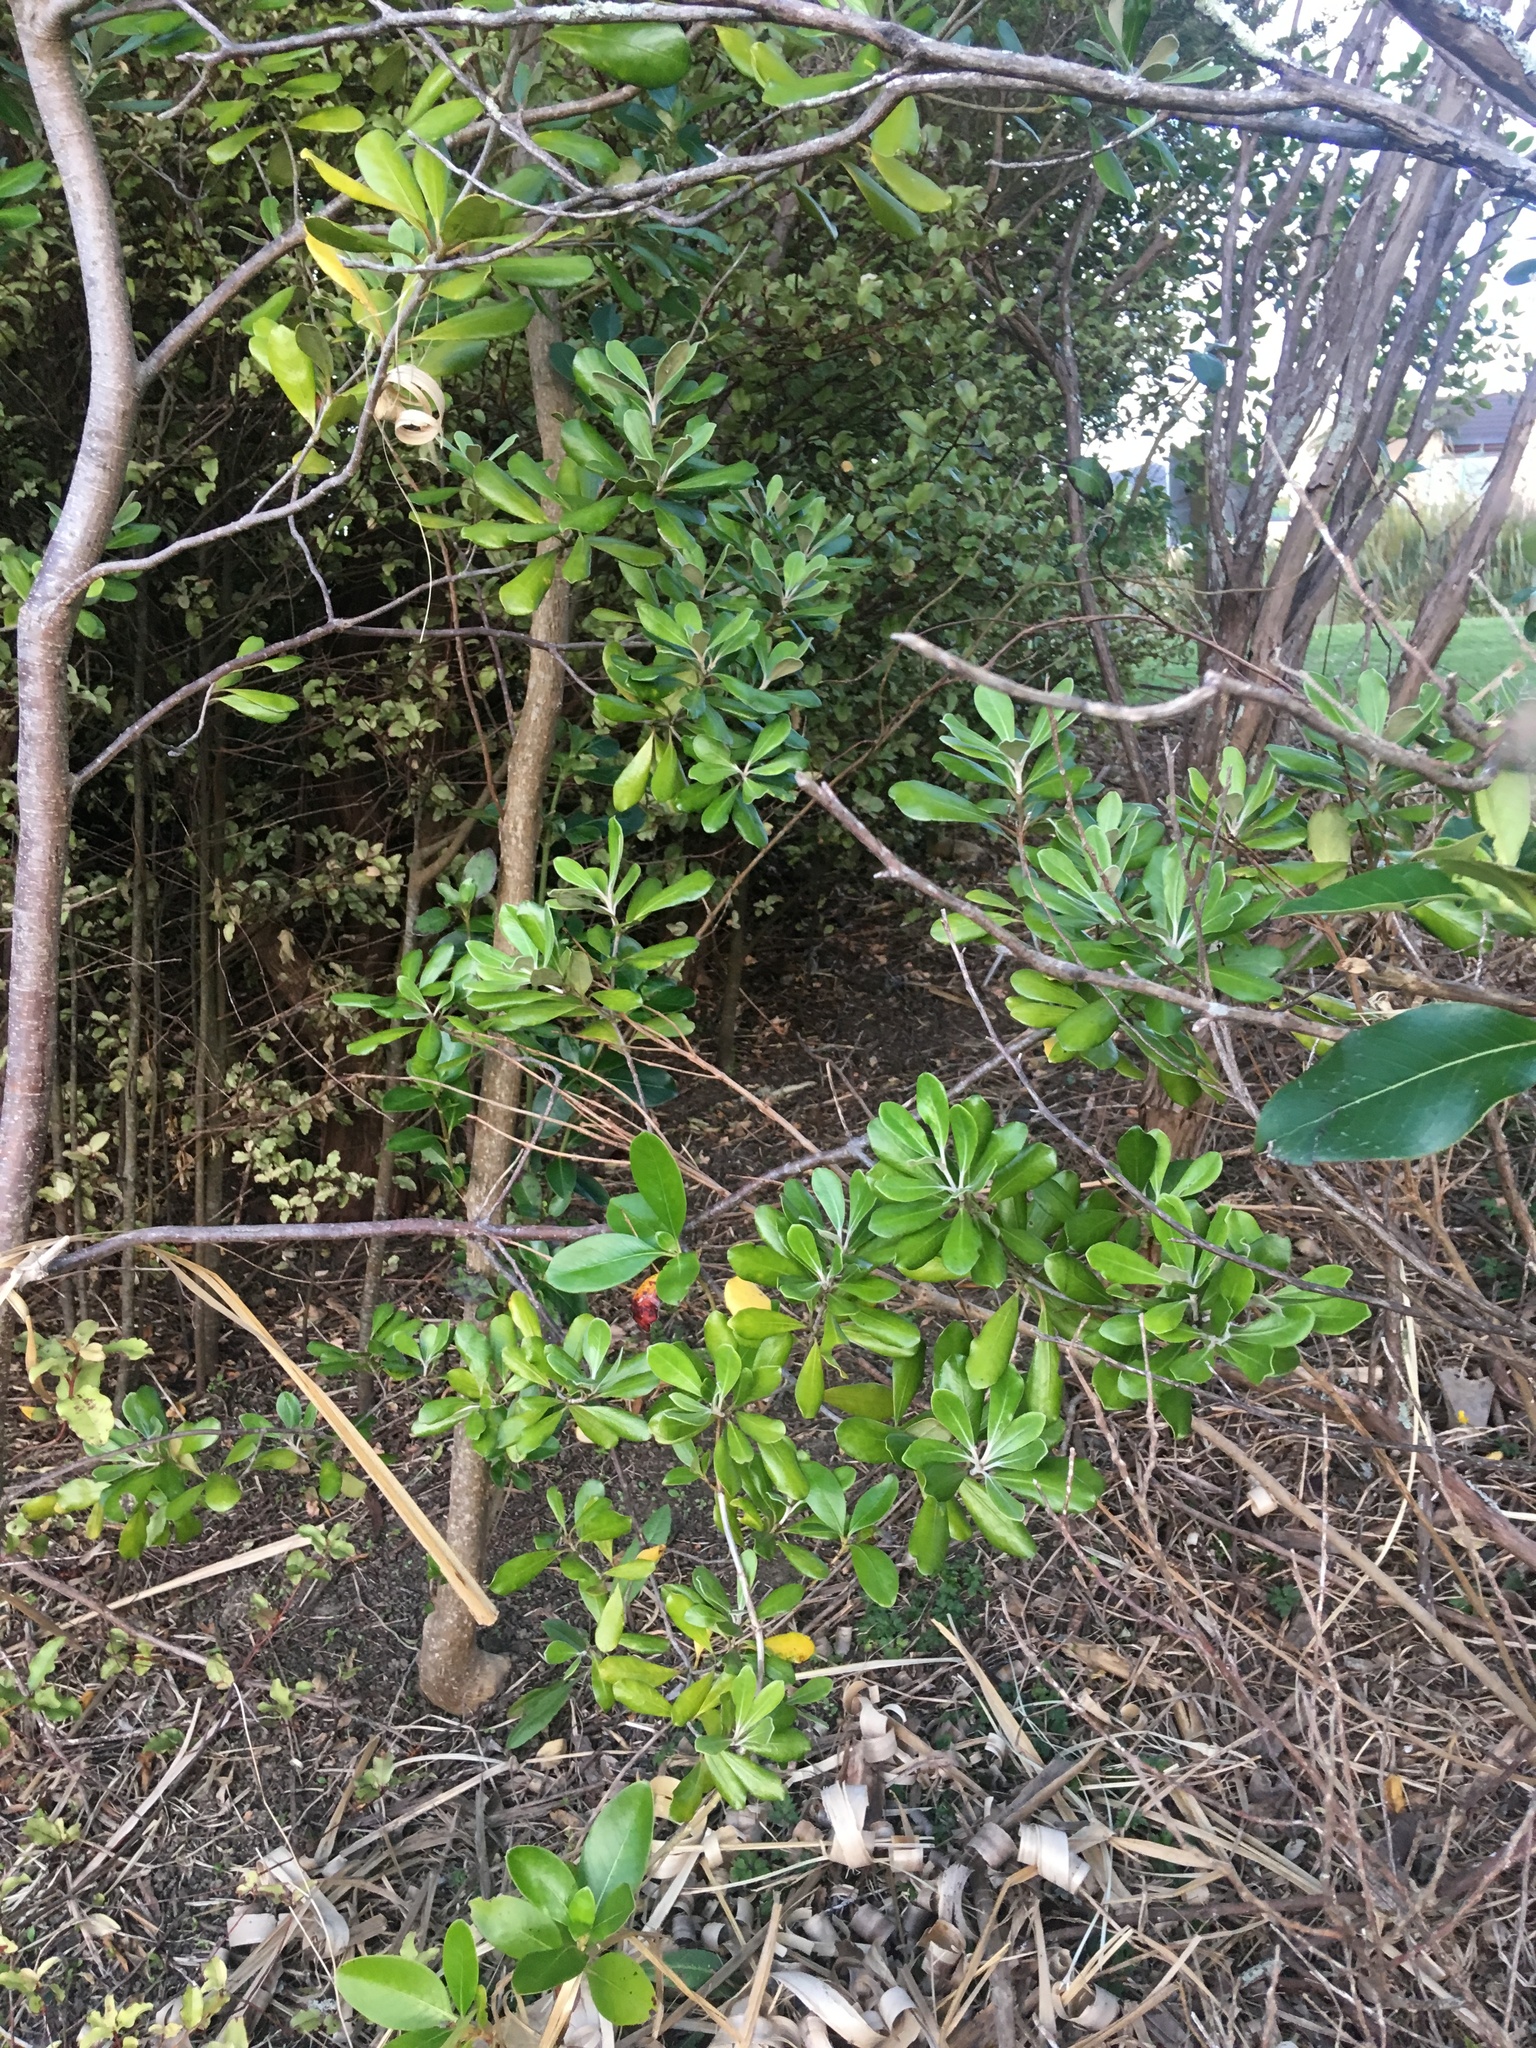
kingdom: Plantae
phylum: Tracheophyta
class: Magnoliopsida
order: Apiales
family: Pittosporaceae
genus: Pittosporum
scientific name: Pittosporum crassifolium
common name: Karo
